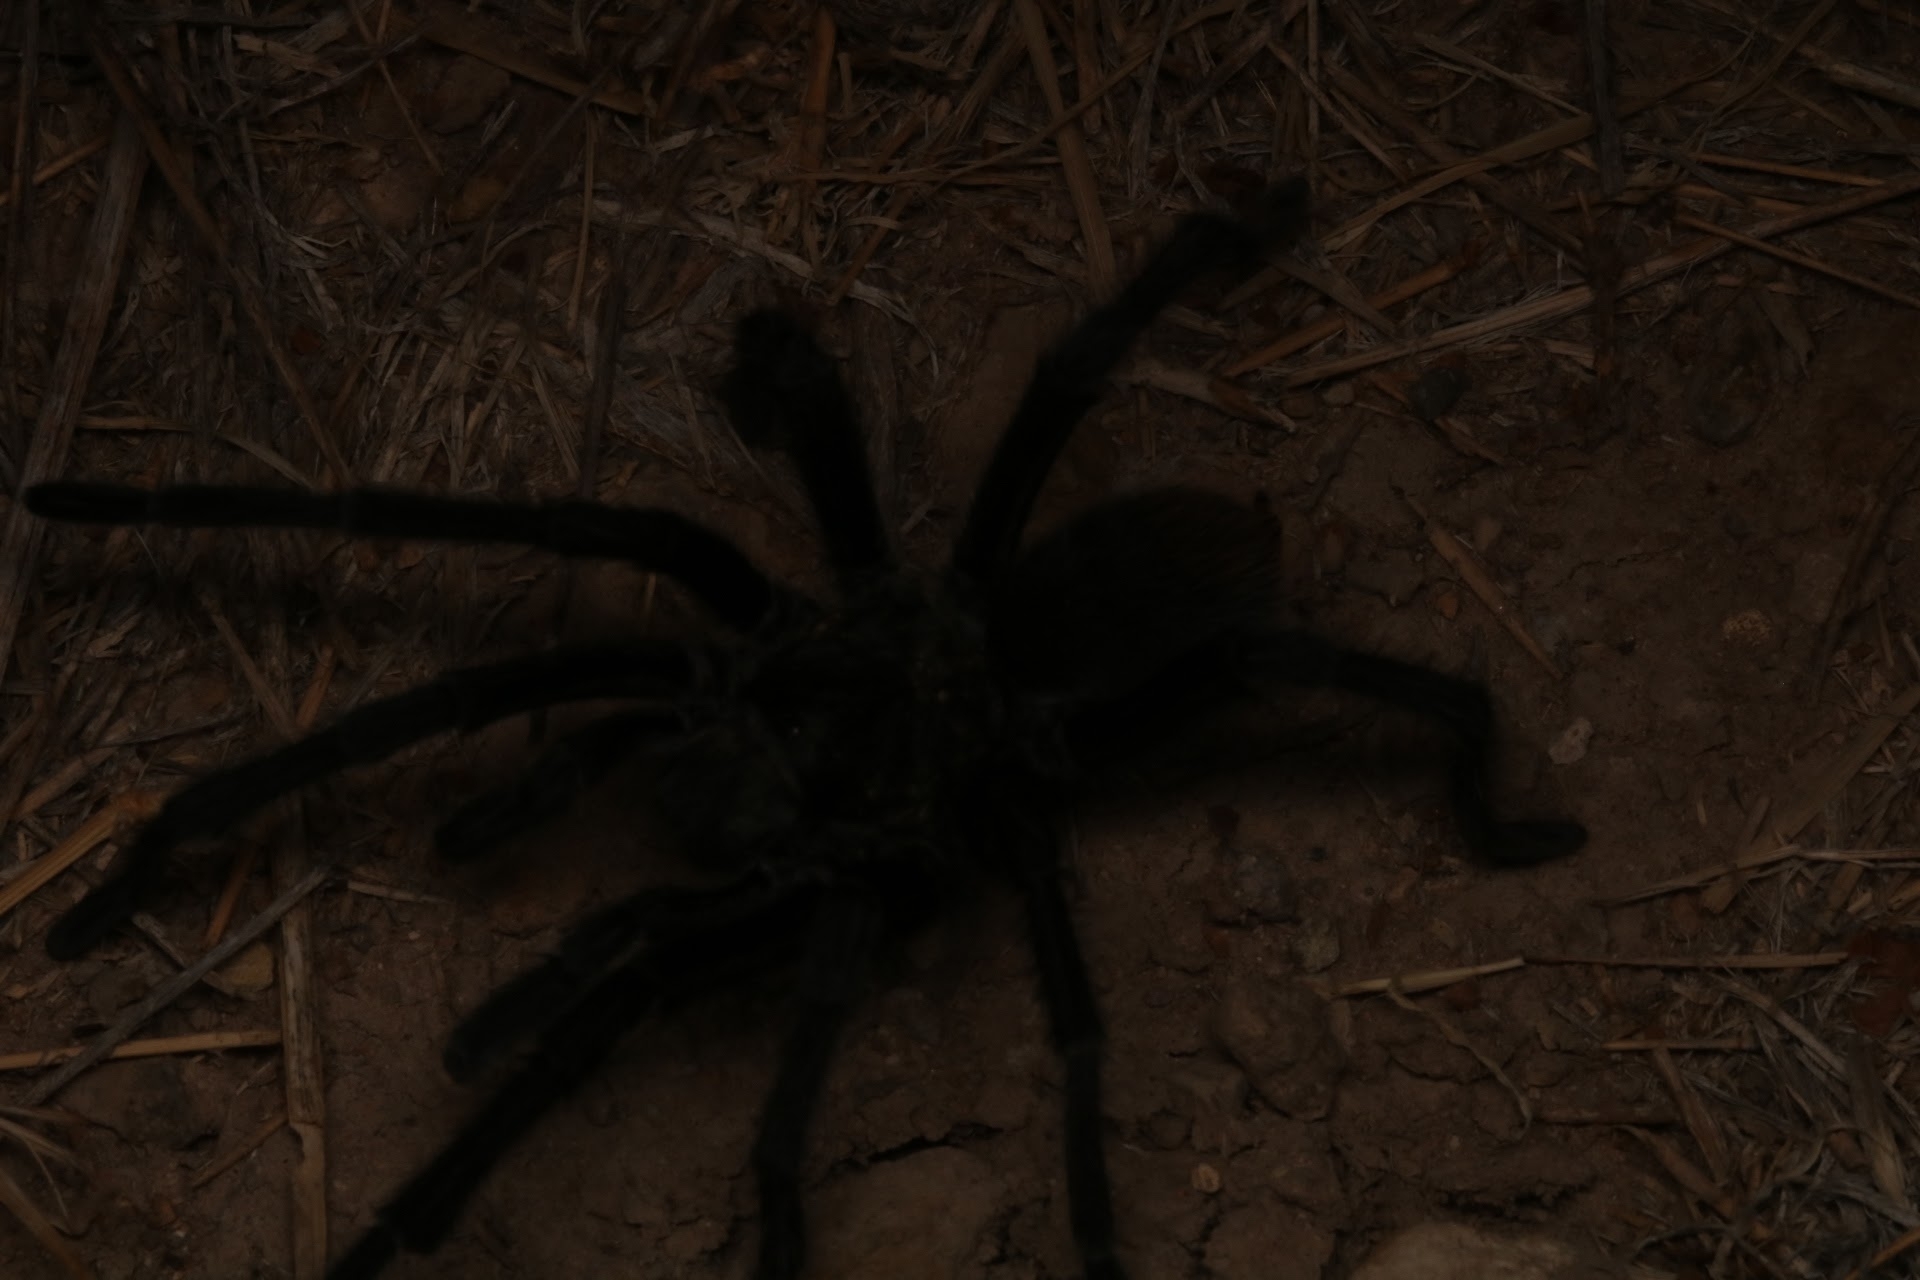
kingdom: Animalia
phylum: Arthropoda
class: Insecta
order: Lepidoptera
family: Noctuidae
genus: Acontia
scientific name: Acontia cretata
